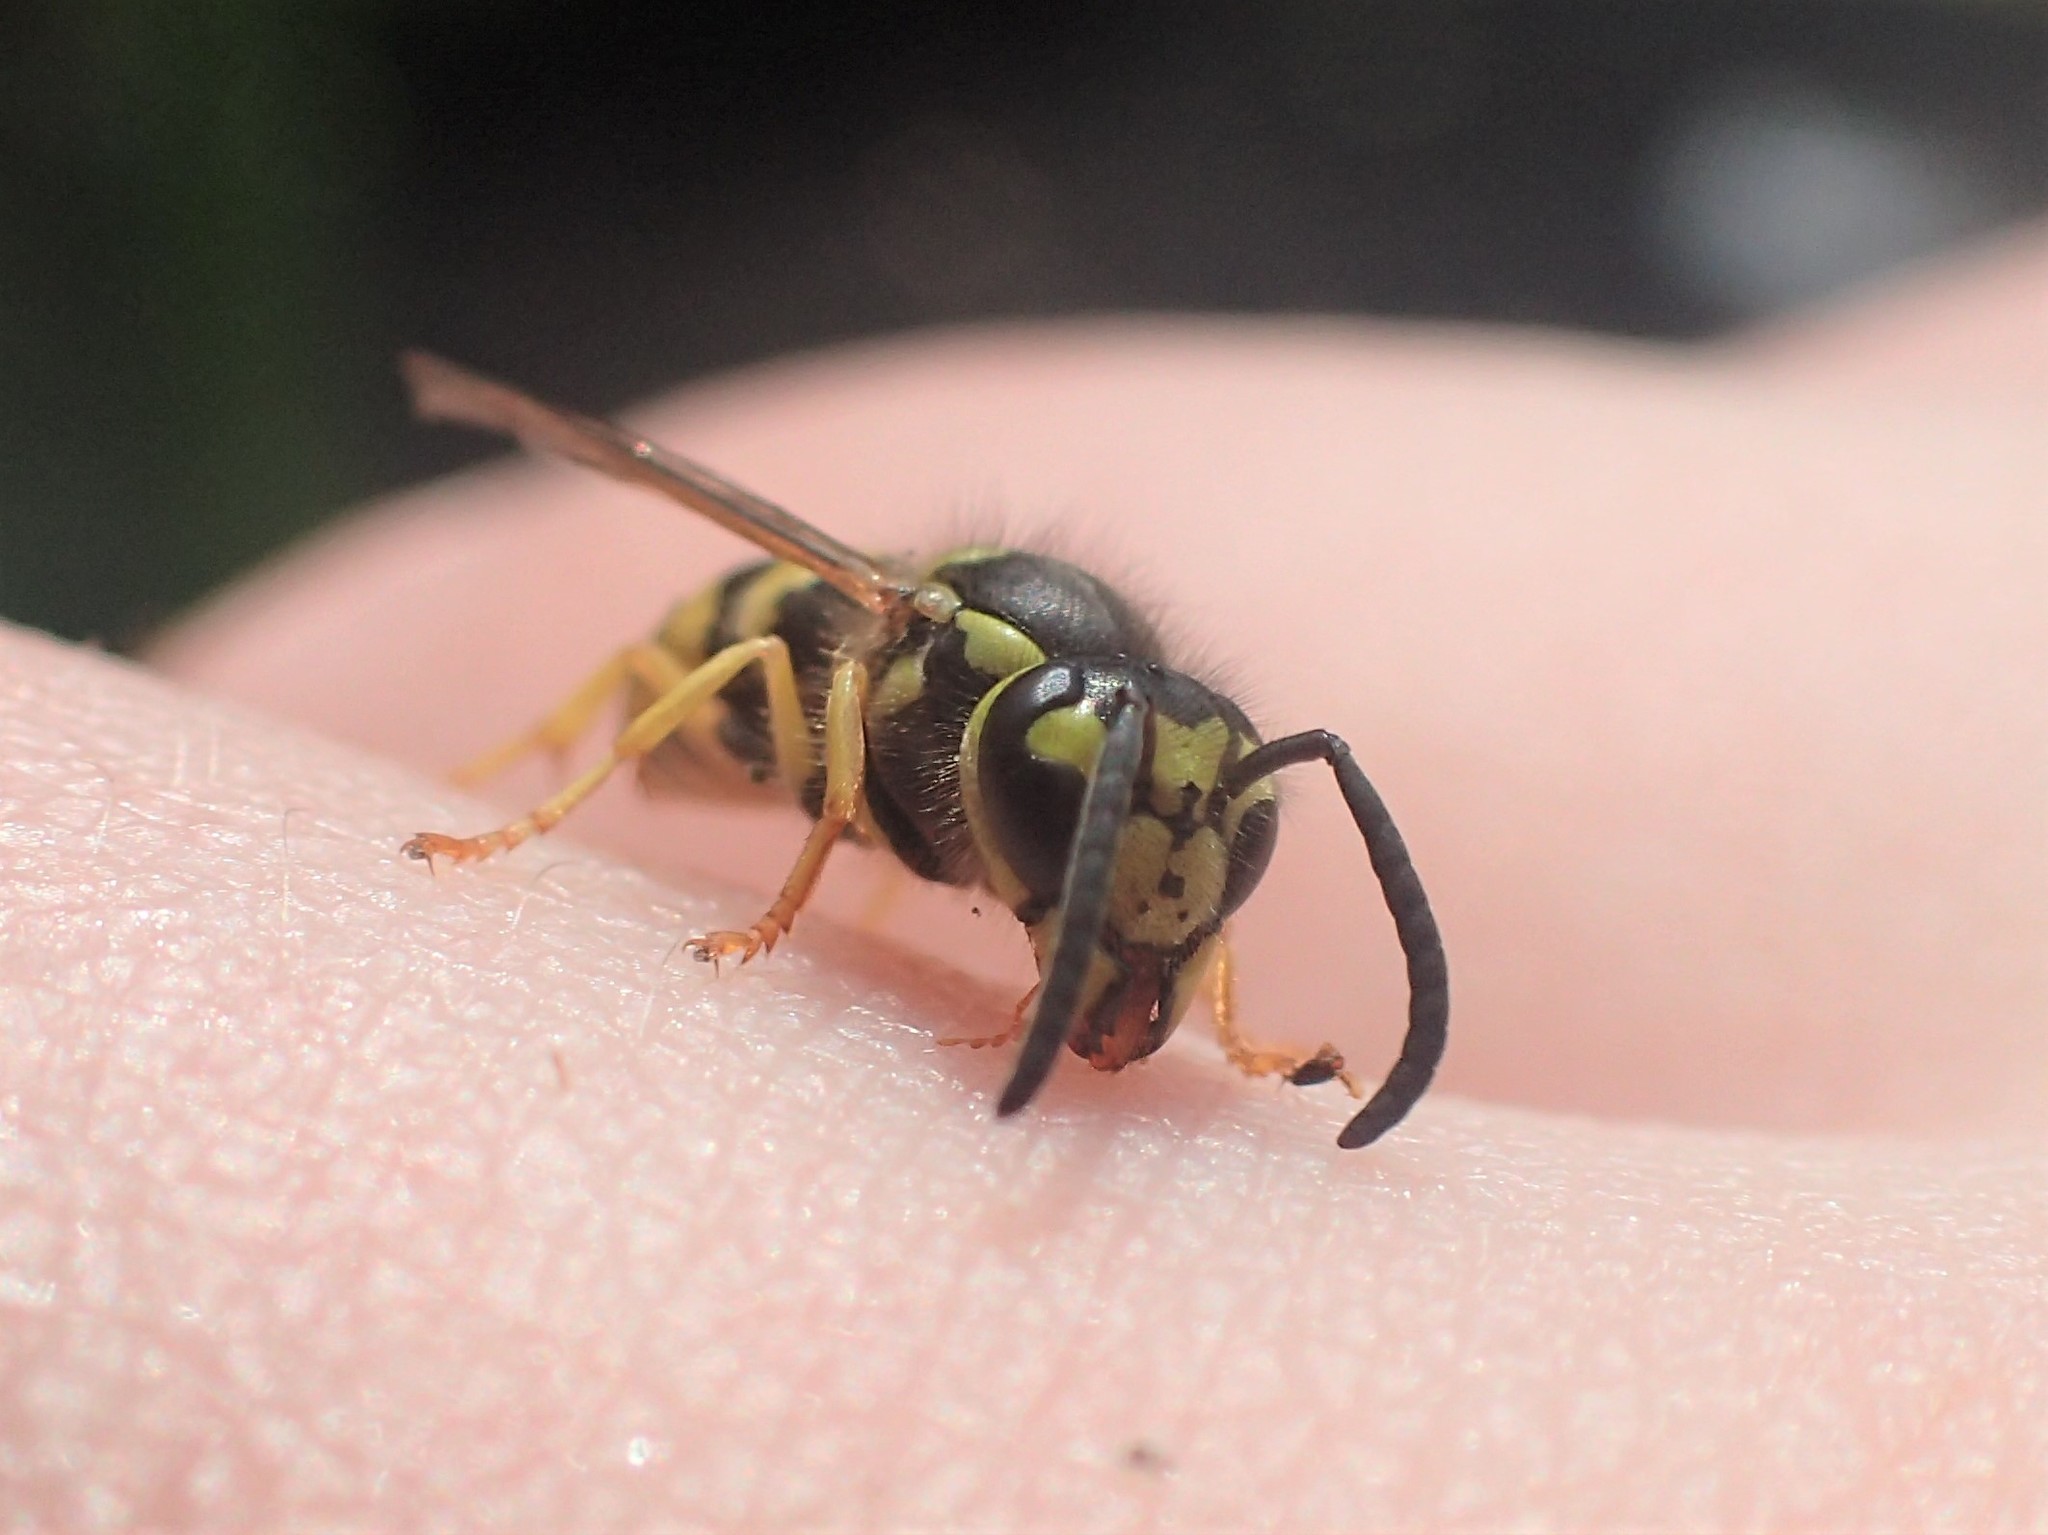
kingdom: Animalia
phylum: Arthropoda
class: Insecta
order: Hymenoptera
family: Vespidae
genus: Vespula
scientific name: Vespula maculifrons
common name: Eastern yellowjacket
